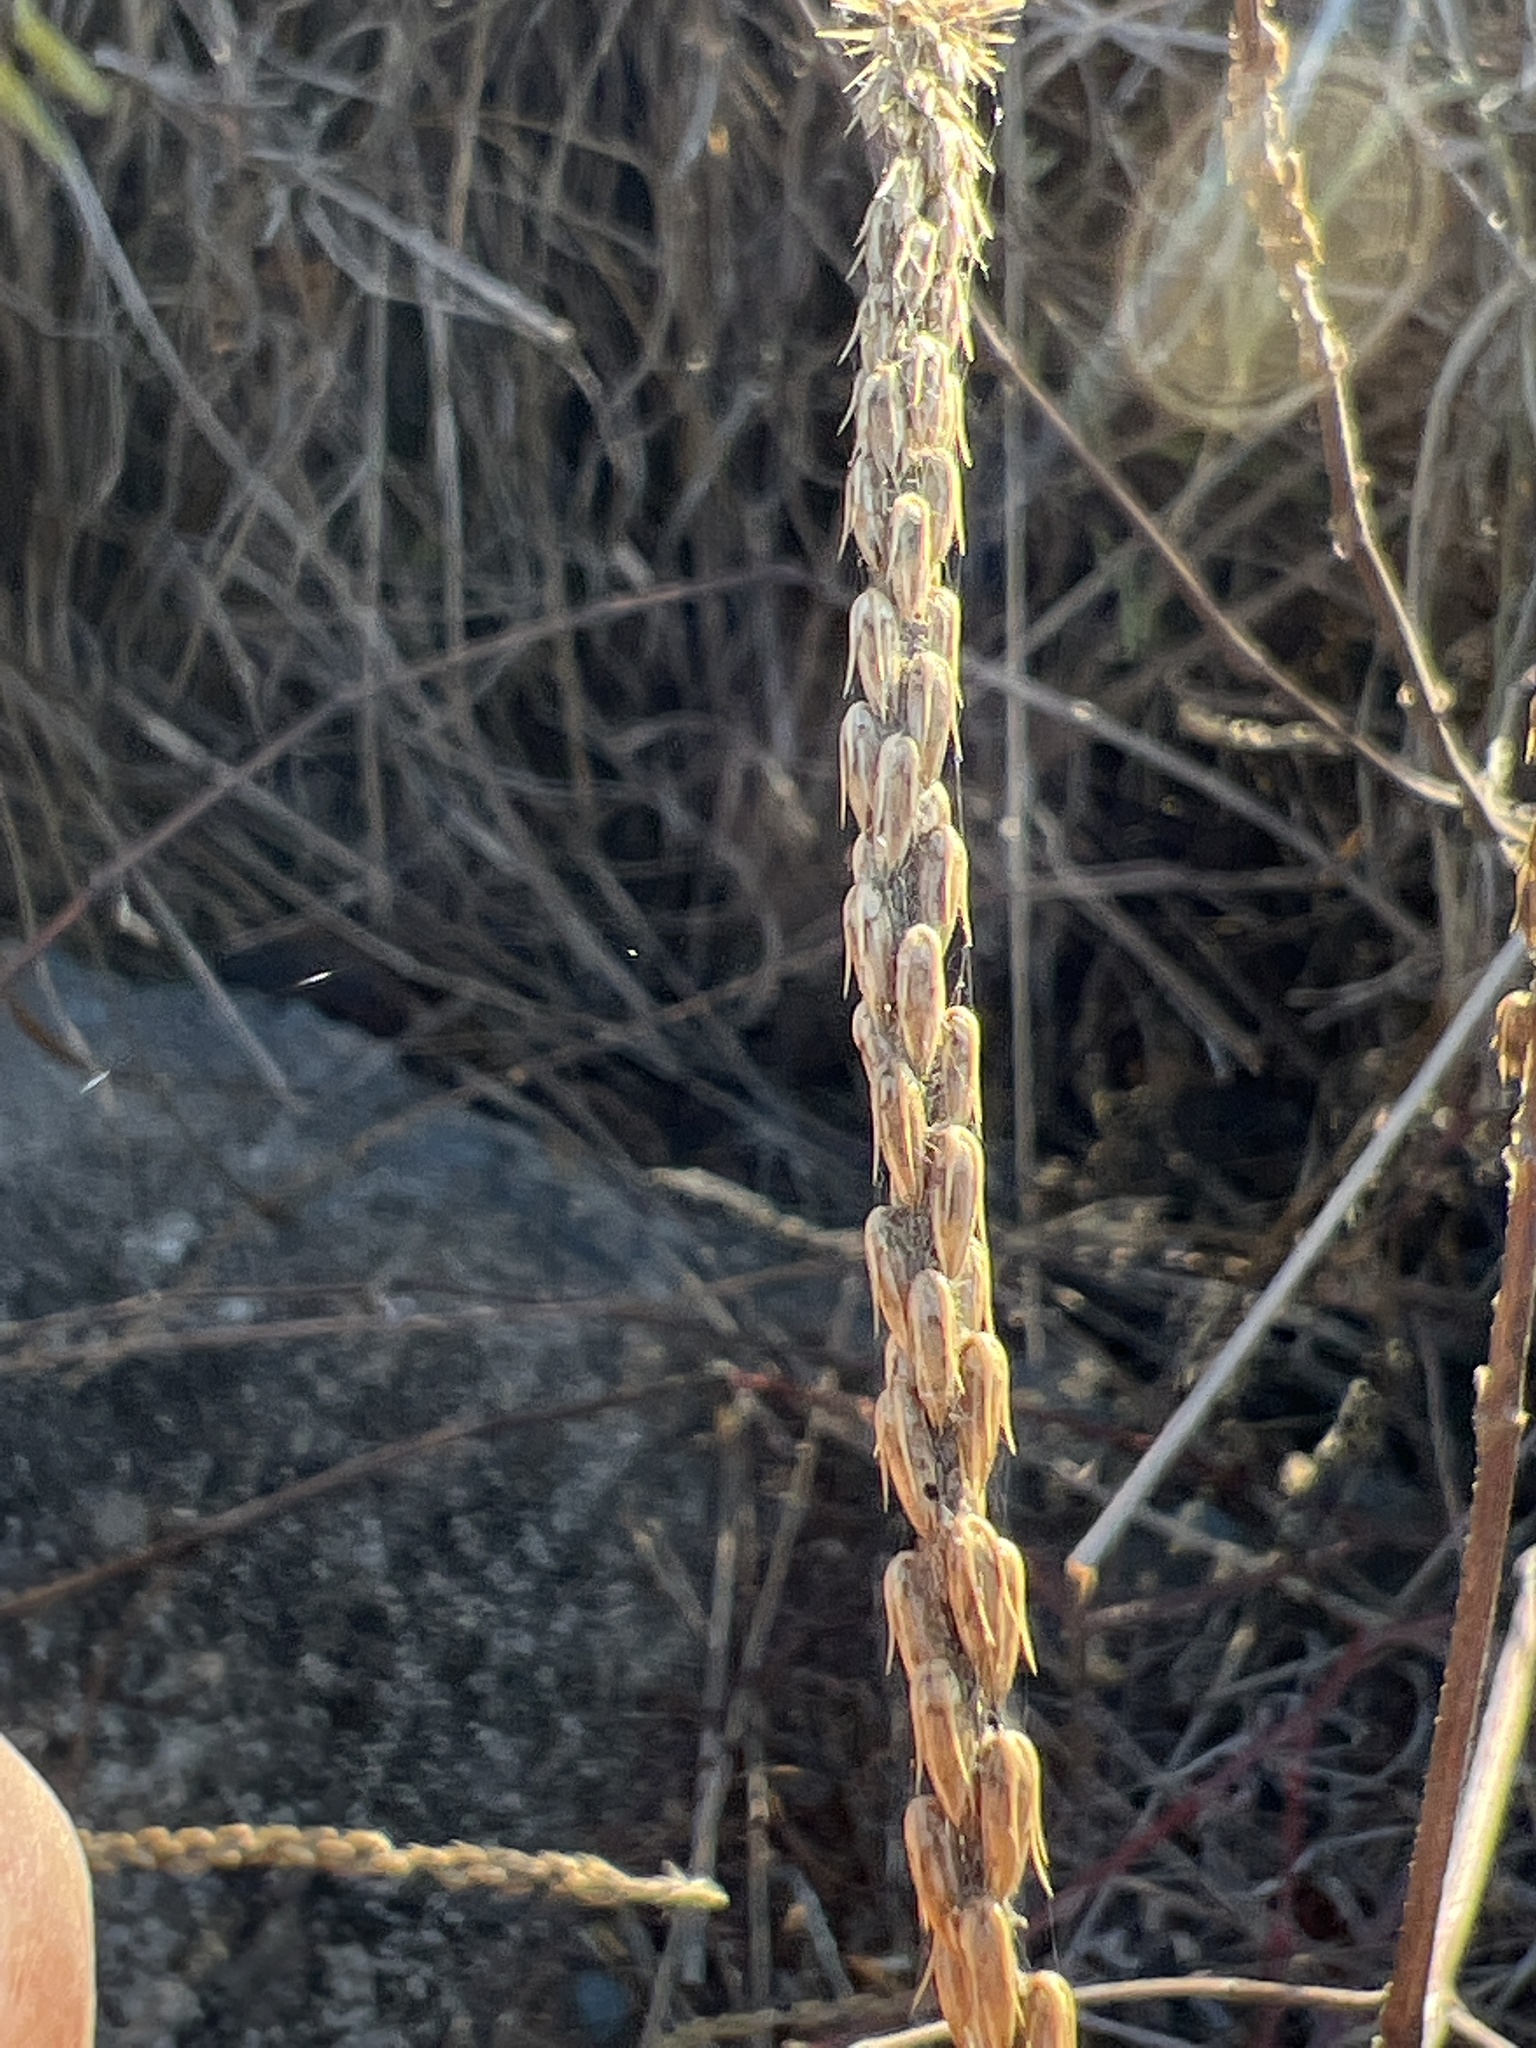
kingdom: Plantae
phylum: Tracheophyta
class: Magnoliopsida
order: Caryophyllales
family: Amaranthaceae
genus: Achyranthes
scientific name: Achyranthes aspera
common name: Devil's horsewhip
